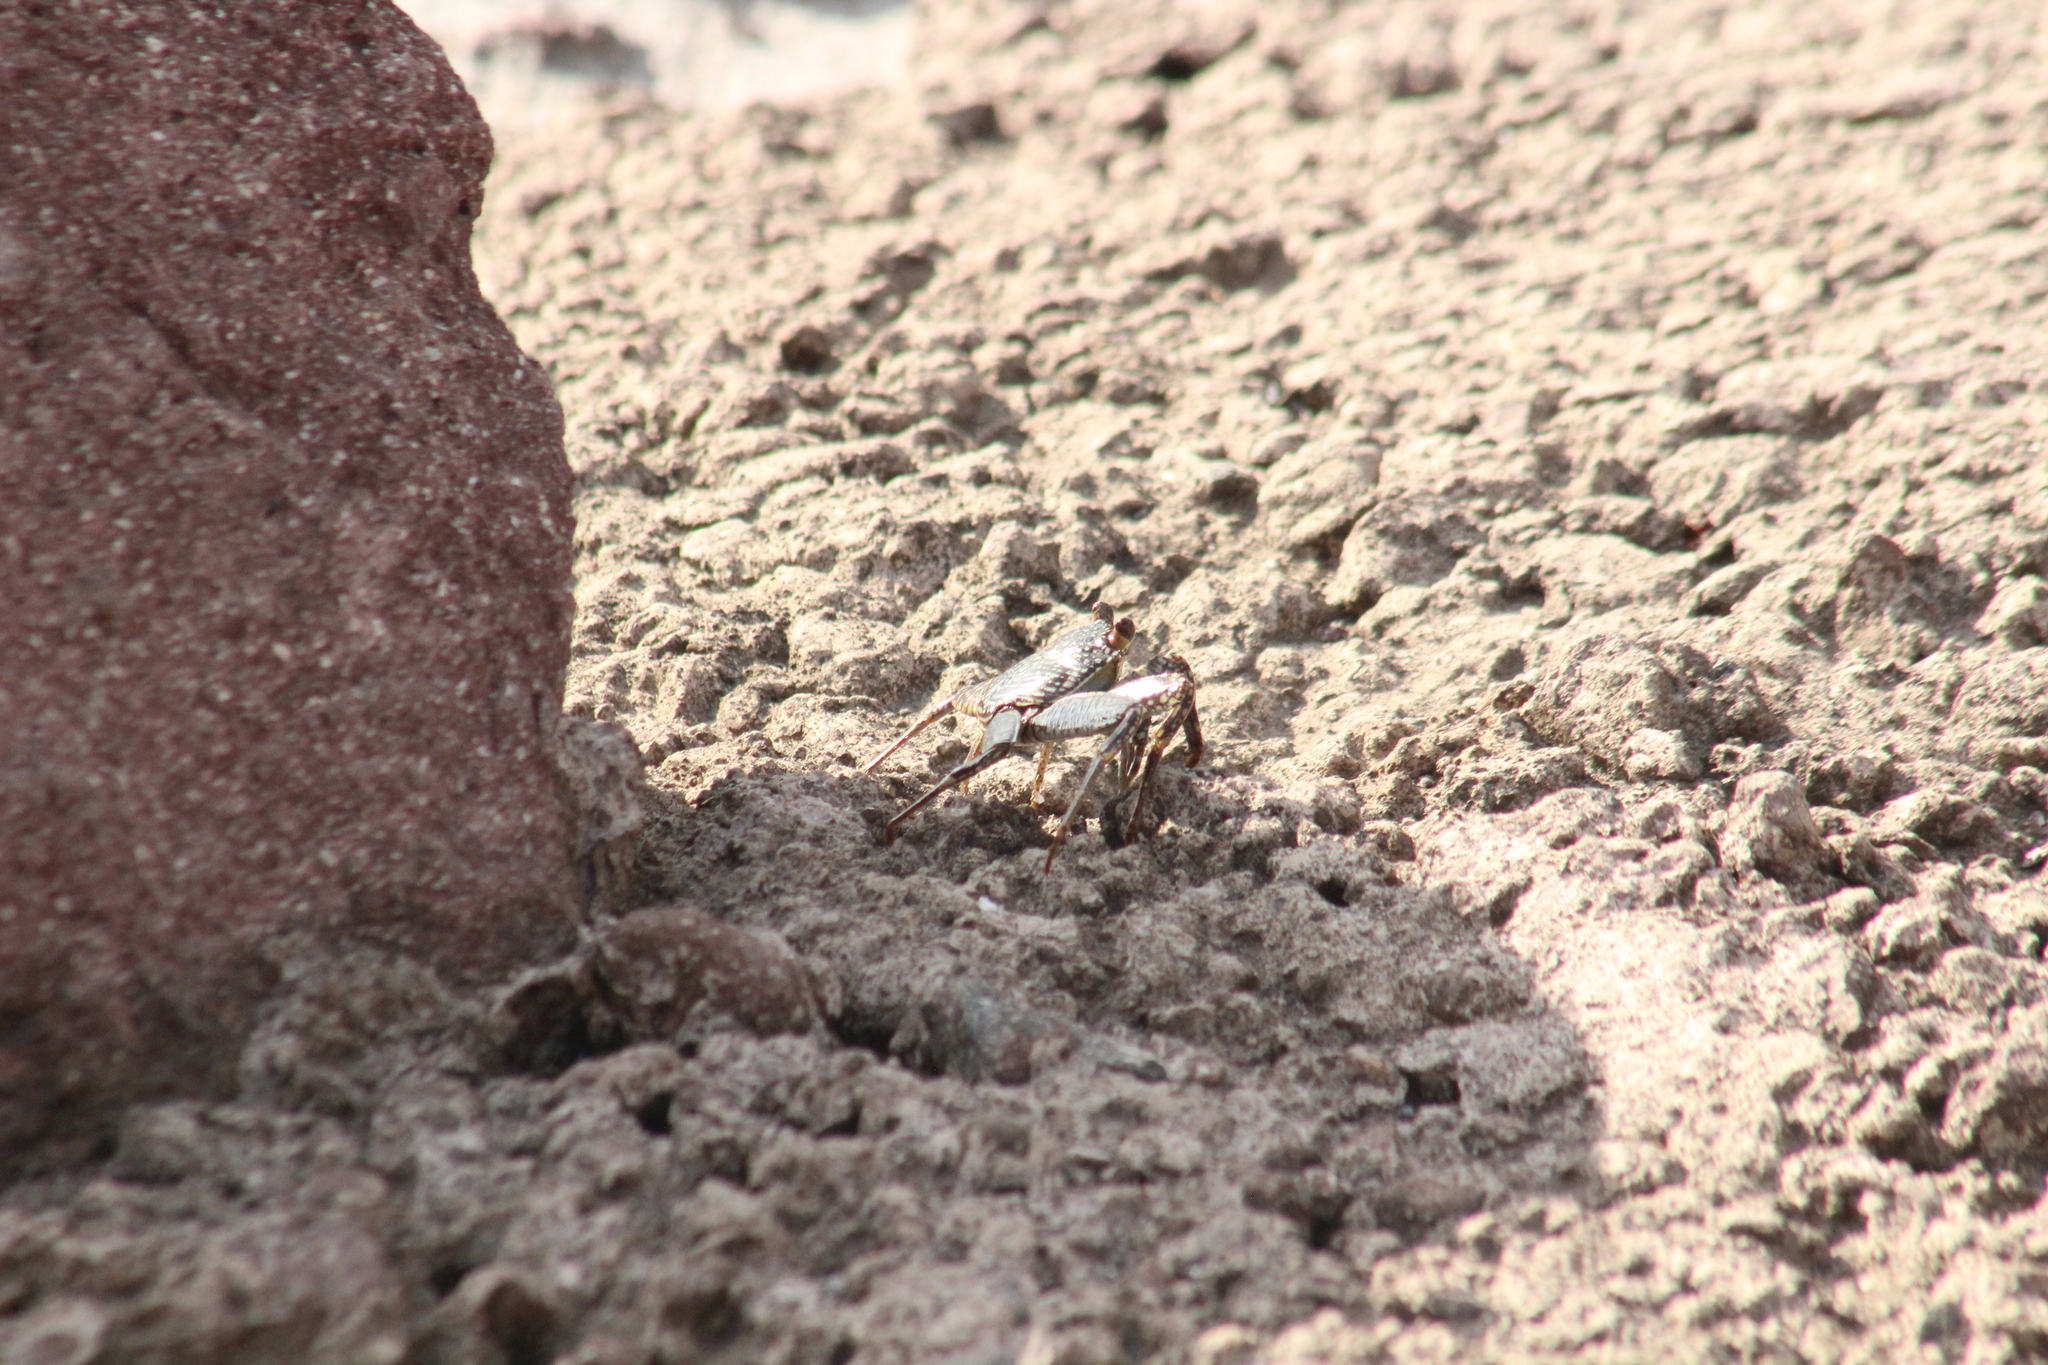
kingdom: Animalia
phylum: Arthropoda
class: Malacostraca
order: Decapoda
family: Grapsidae
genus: Grapsus
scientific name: Grapsus grapsus
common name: Sally lightfoot
